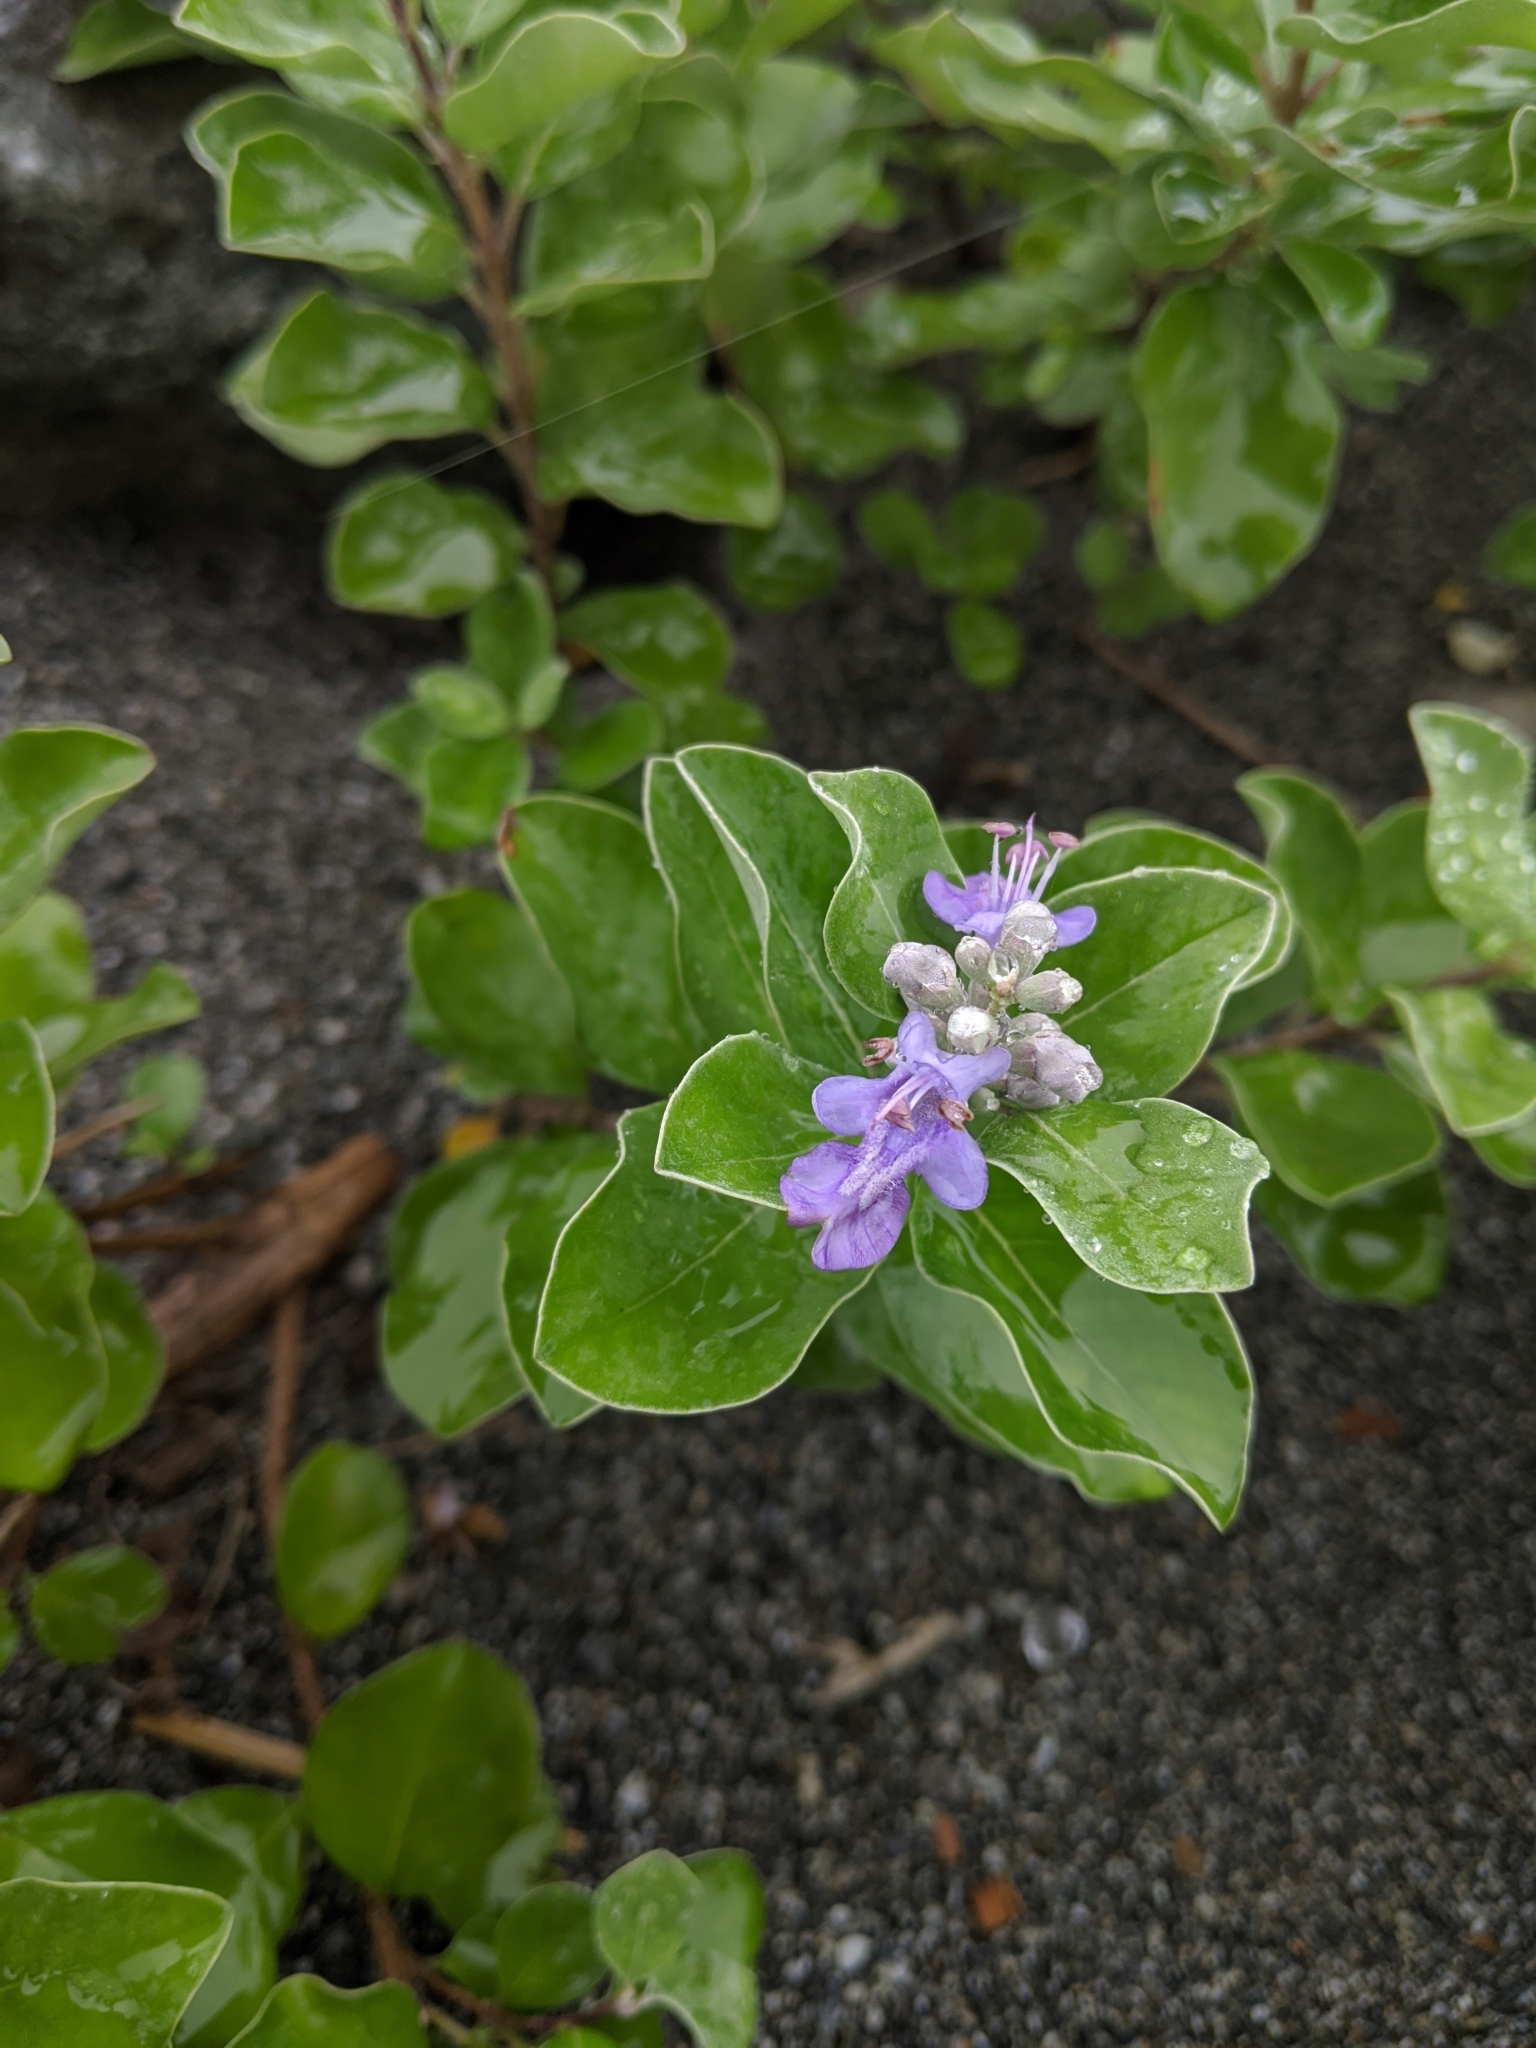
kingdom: Plantae
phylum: Tracheophyta
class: Magnoliopsida
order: Lamiales
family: Lamiaceae
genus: Vitex
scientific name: Vitex rotundifolia
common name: Beach vitex
